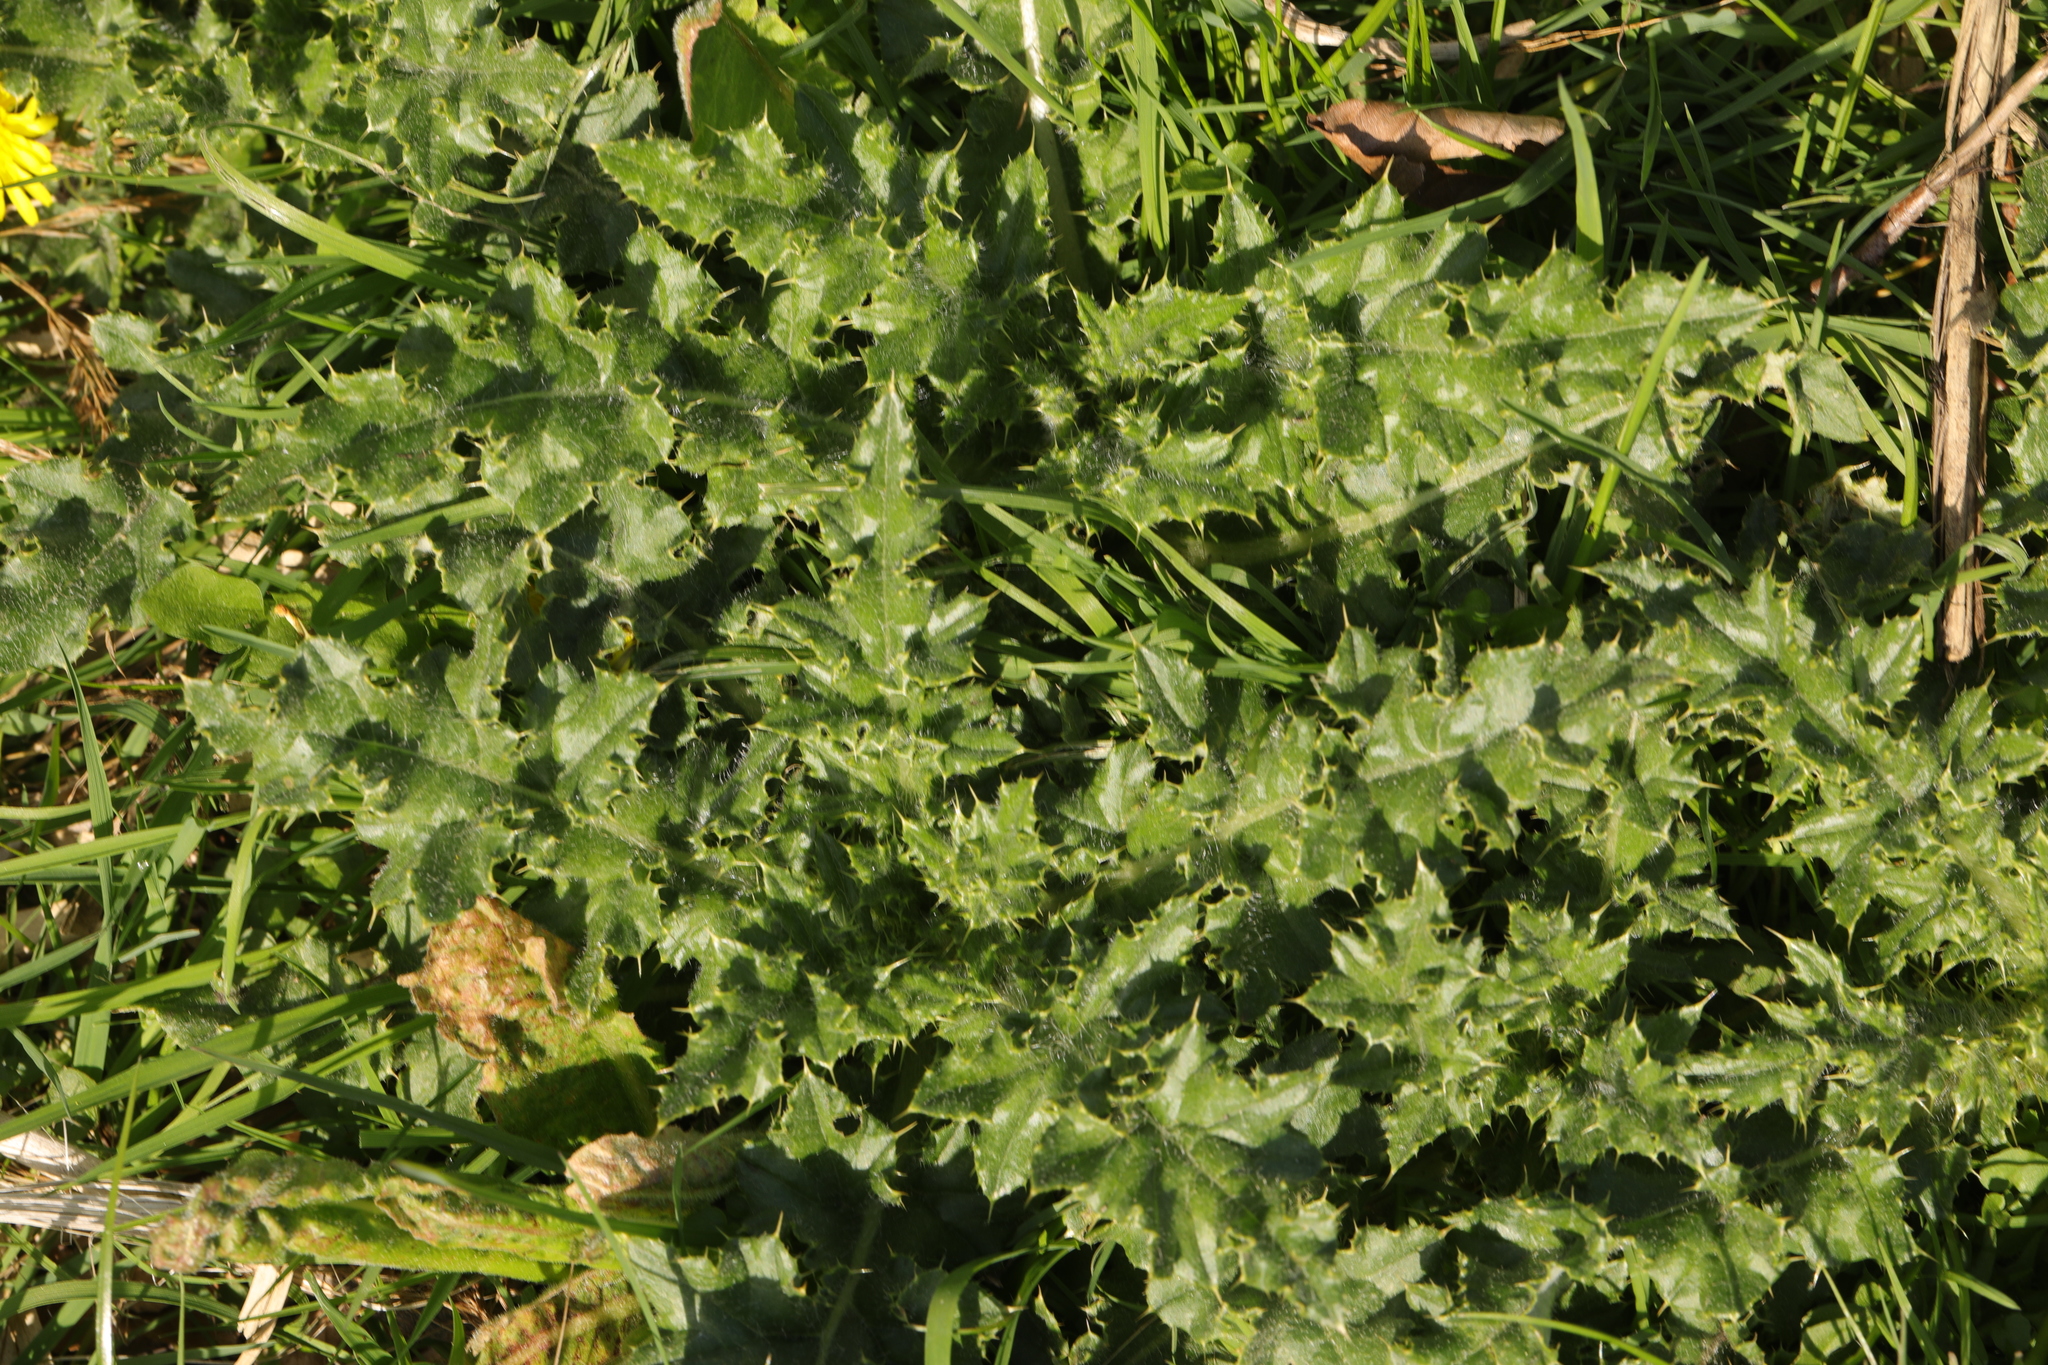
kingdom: Plantae
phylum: Tracheophyta
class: Magnoliopsida
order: Asterales
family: Asteraceae
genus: Cirsium
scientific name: Cirsium arvense
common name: Creeping thistle
